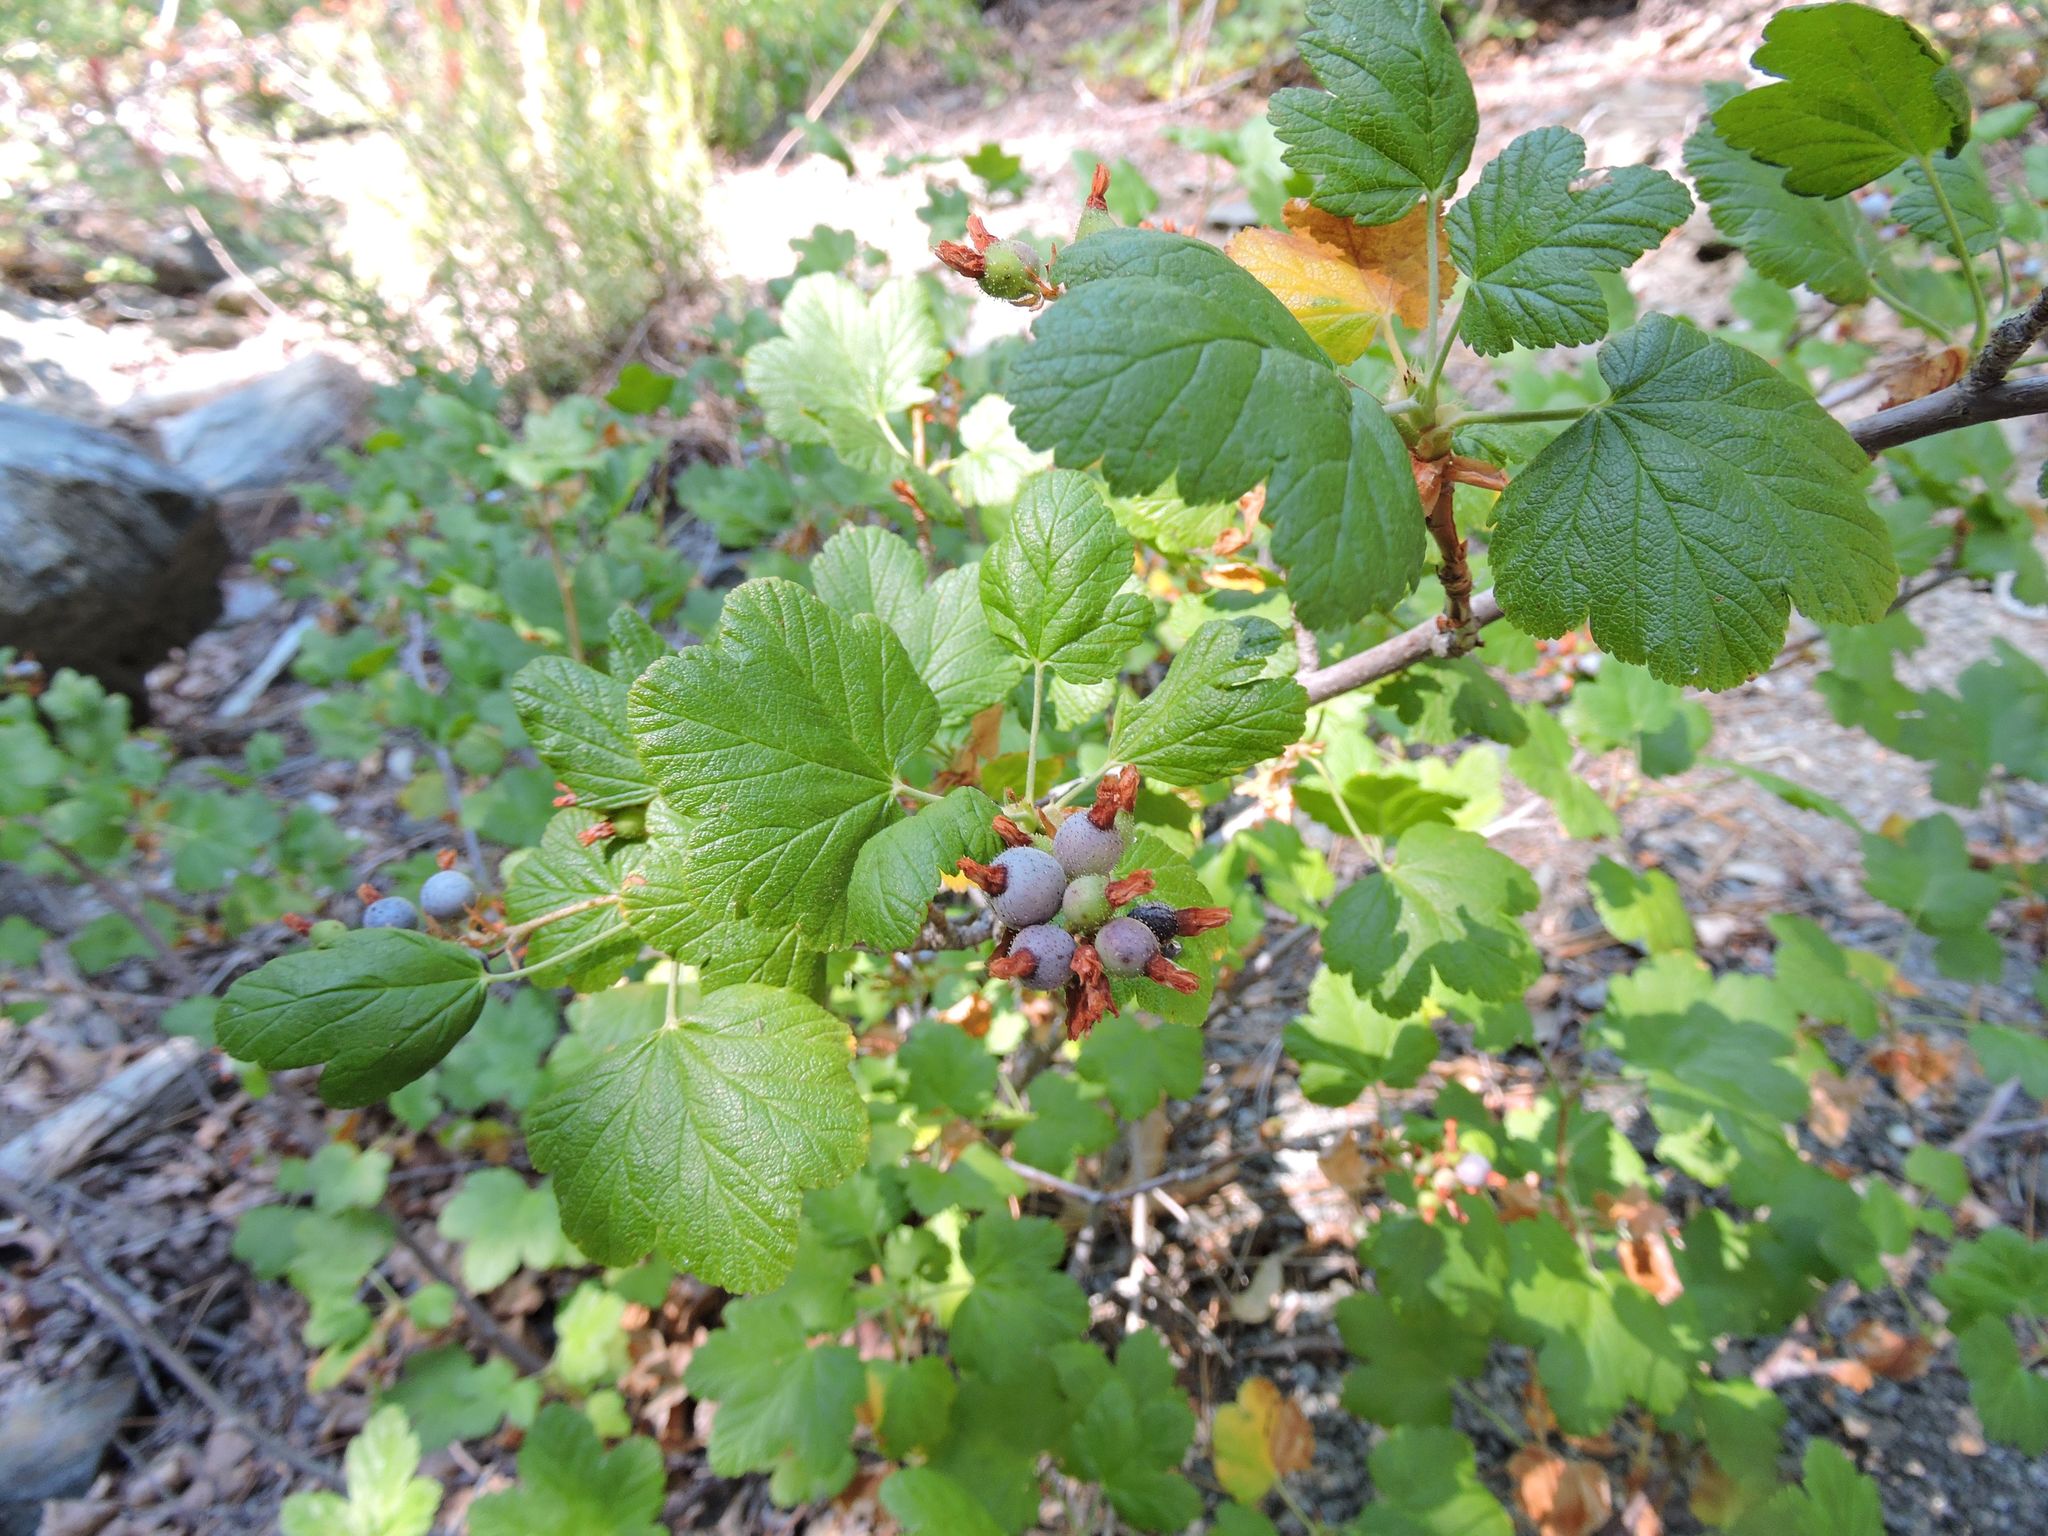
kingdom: Plantae
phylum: Tracheophyta
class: Magnoliopsida
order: Saxifragales
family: Grossulariaceae
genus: Ribes
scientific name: Ribes nevadense
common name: Mountain pink currant
